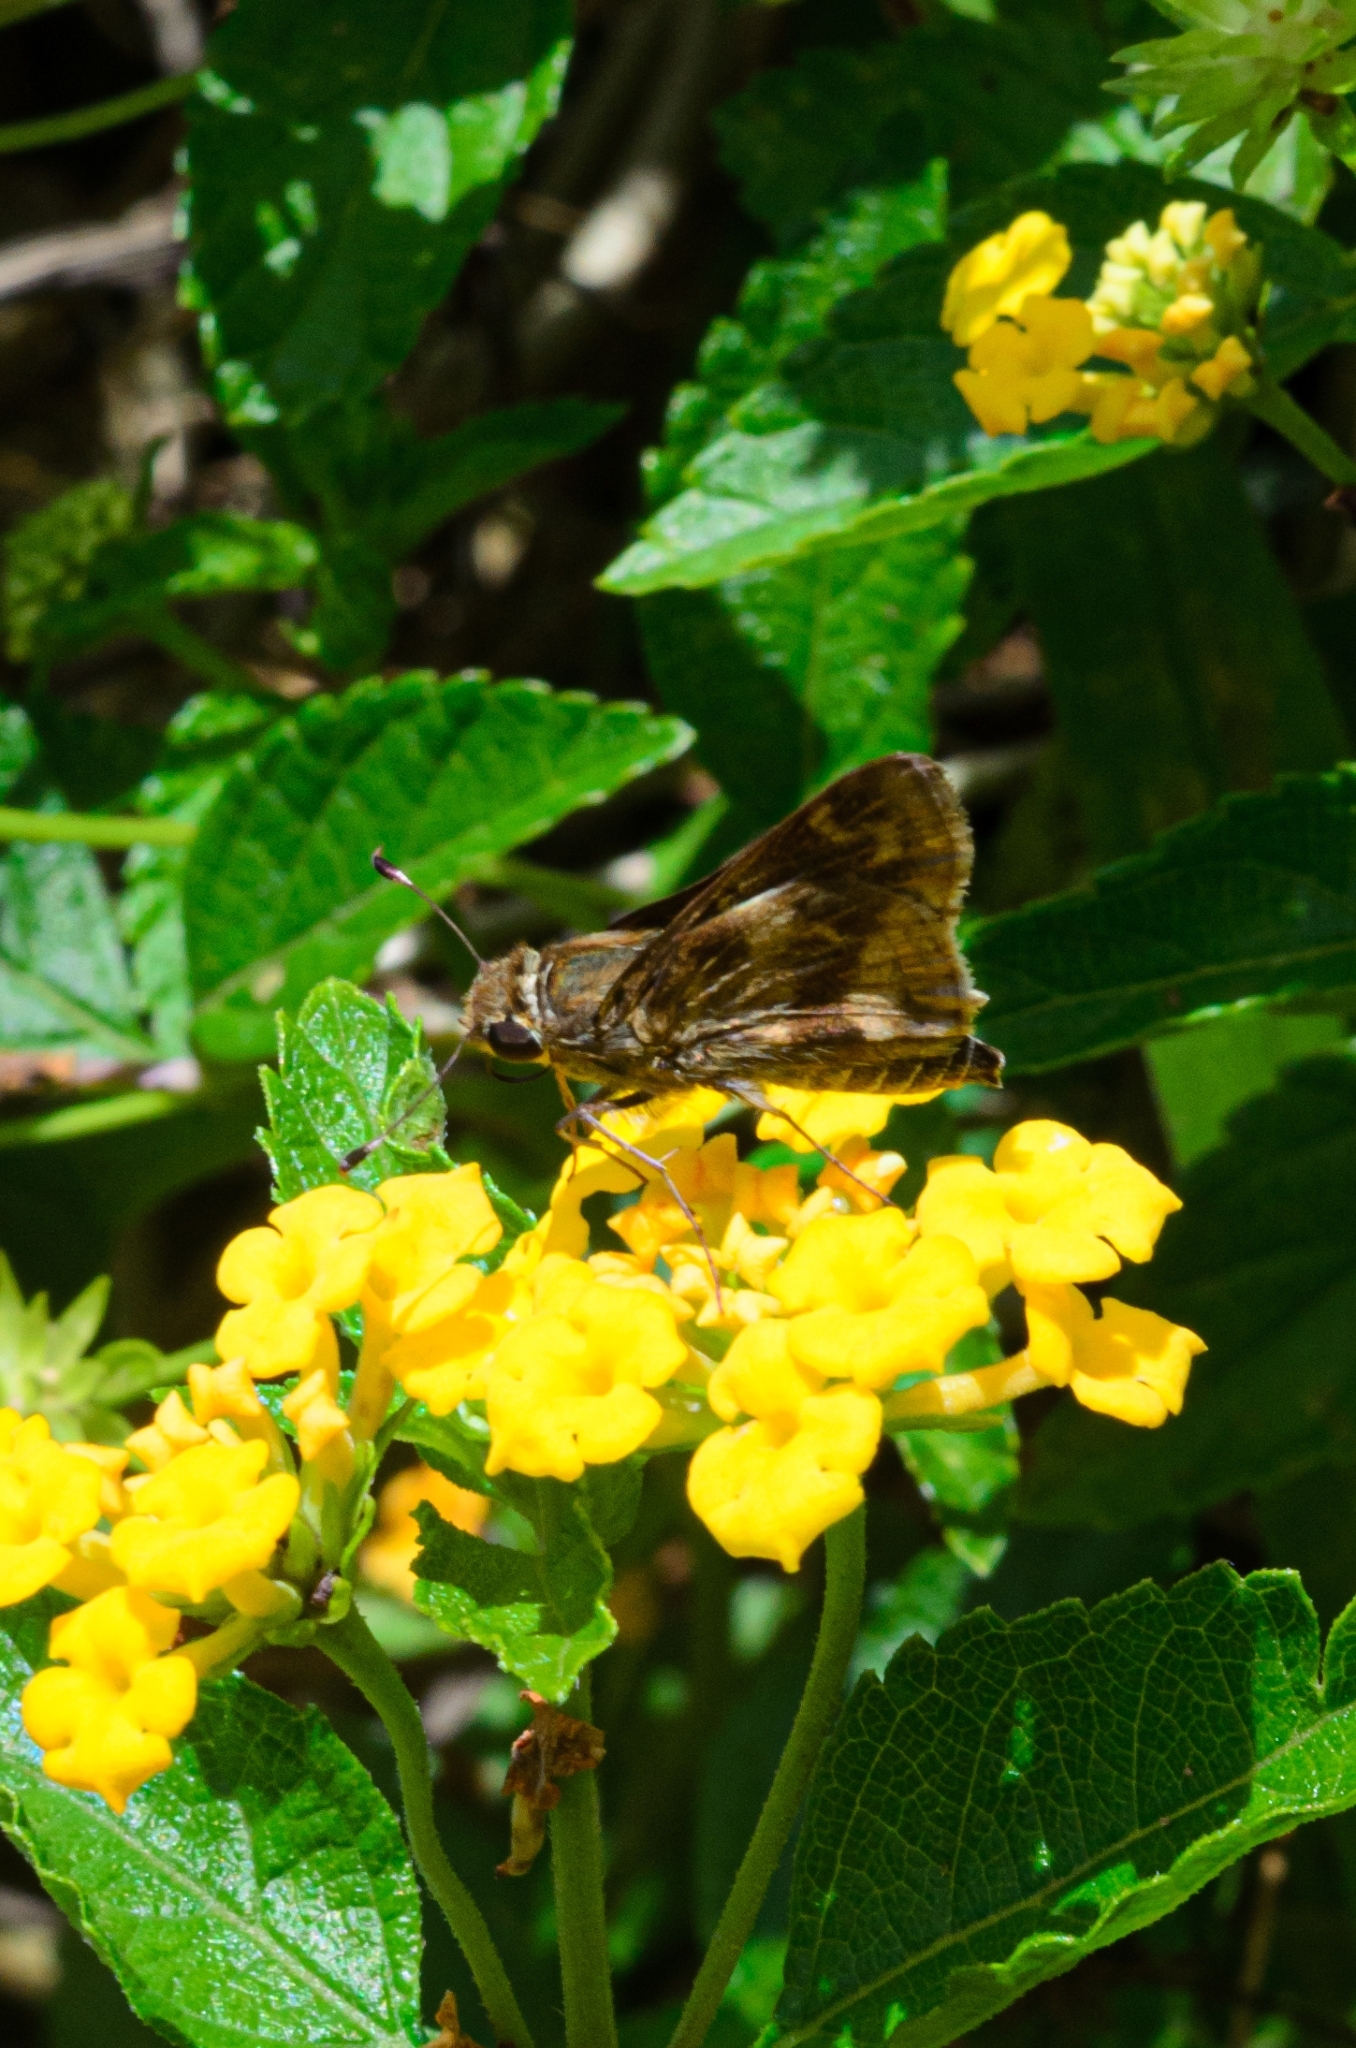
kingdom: Animalia
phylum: Arthropoda
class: Insecta
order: Lepidoptera
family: Hesperiidae
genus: Pompeius
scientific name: Pompeius pompeius
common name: Pompeius skipper
